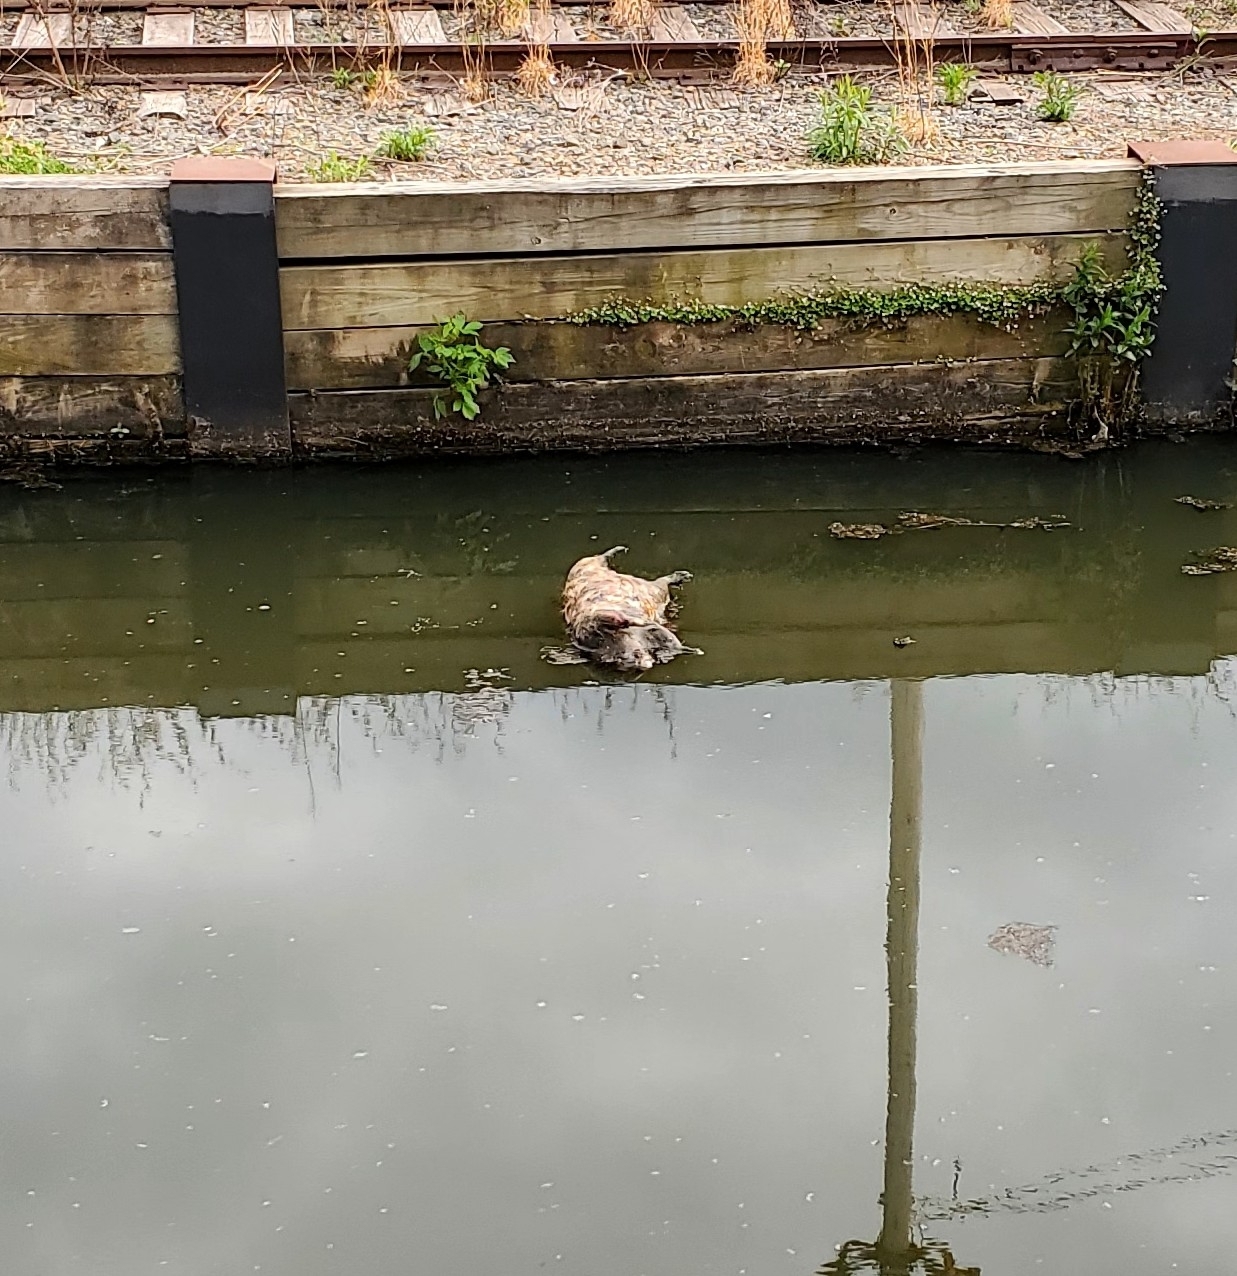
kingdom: Animalia
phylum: Chordata
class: Mammalia
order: Carnivora
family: Procyonidae
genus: Procyon
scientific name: Procyon lotor
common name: Raccoon
